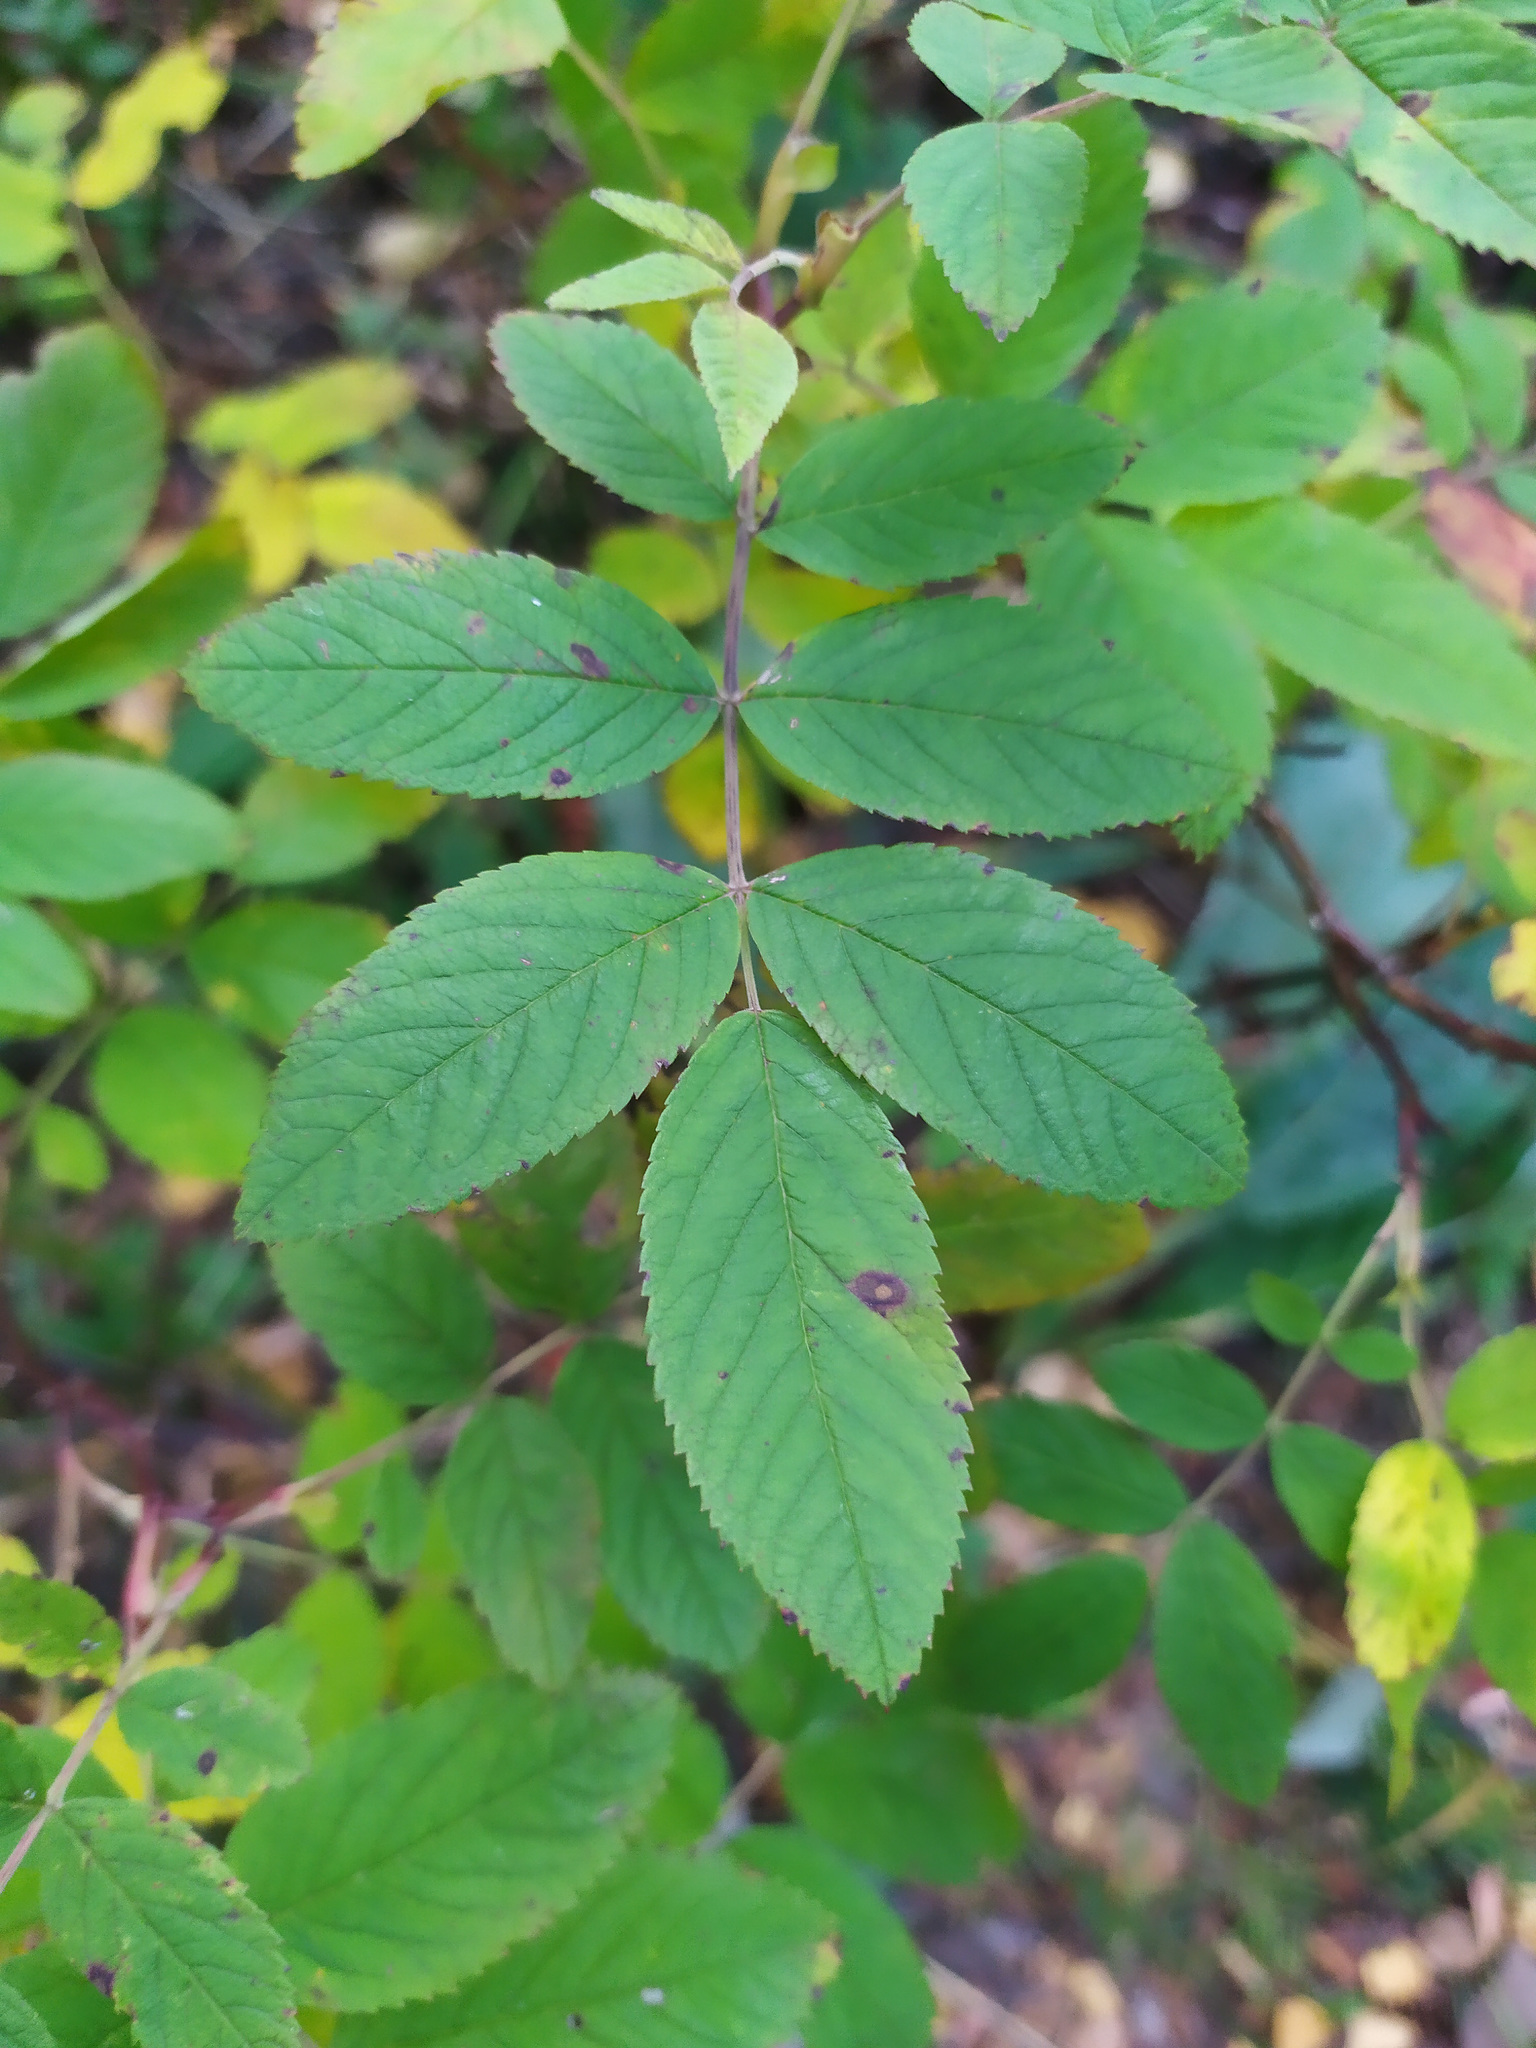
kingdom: Plantae
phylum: Tracheophyta
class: Magnoliopsida
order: Rosales
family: Rosaceae
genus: Rosa
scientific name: Rosa
